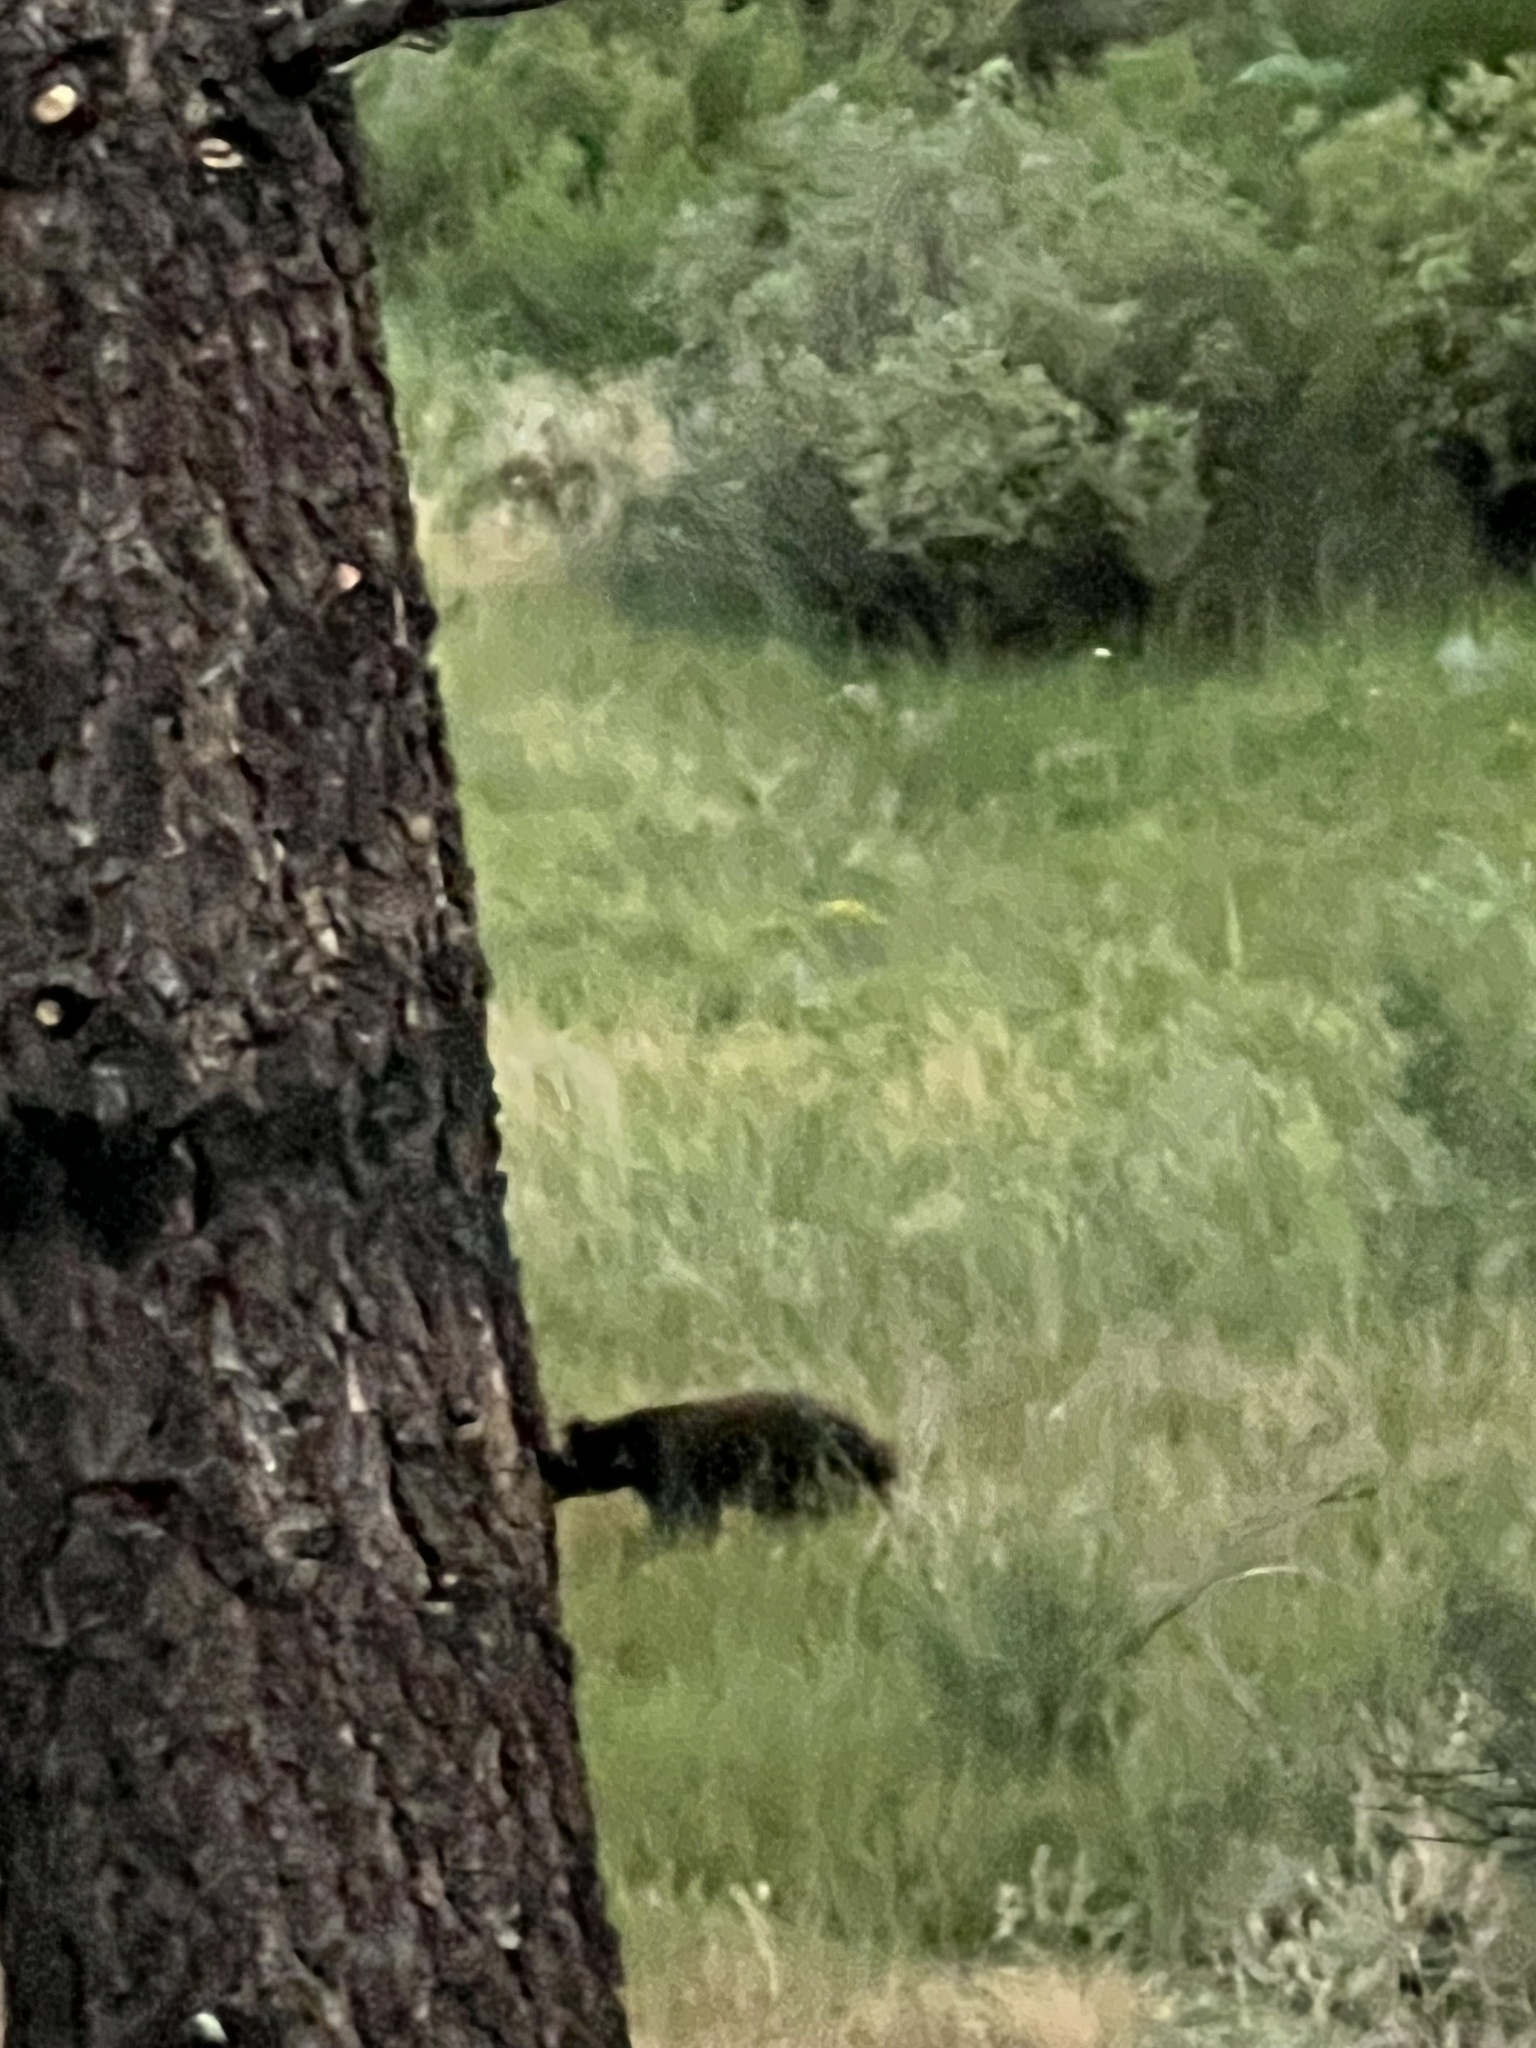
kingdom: Animalia
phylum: Chordata
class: Mammalia
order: Carnivora
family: Ursidae
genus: Ursus
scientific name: Ursus americanus
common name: American black bear
